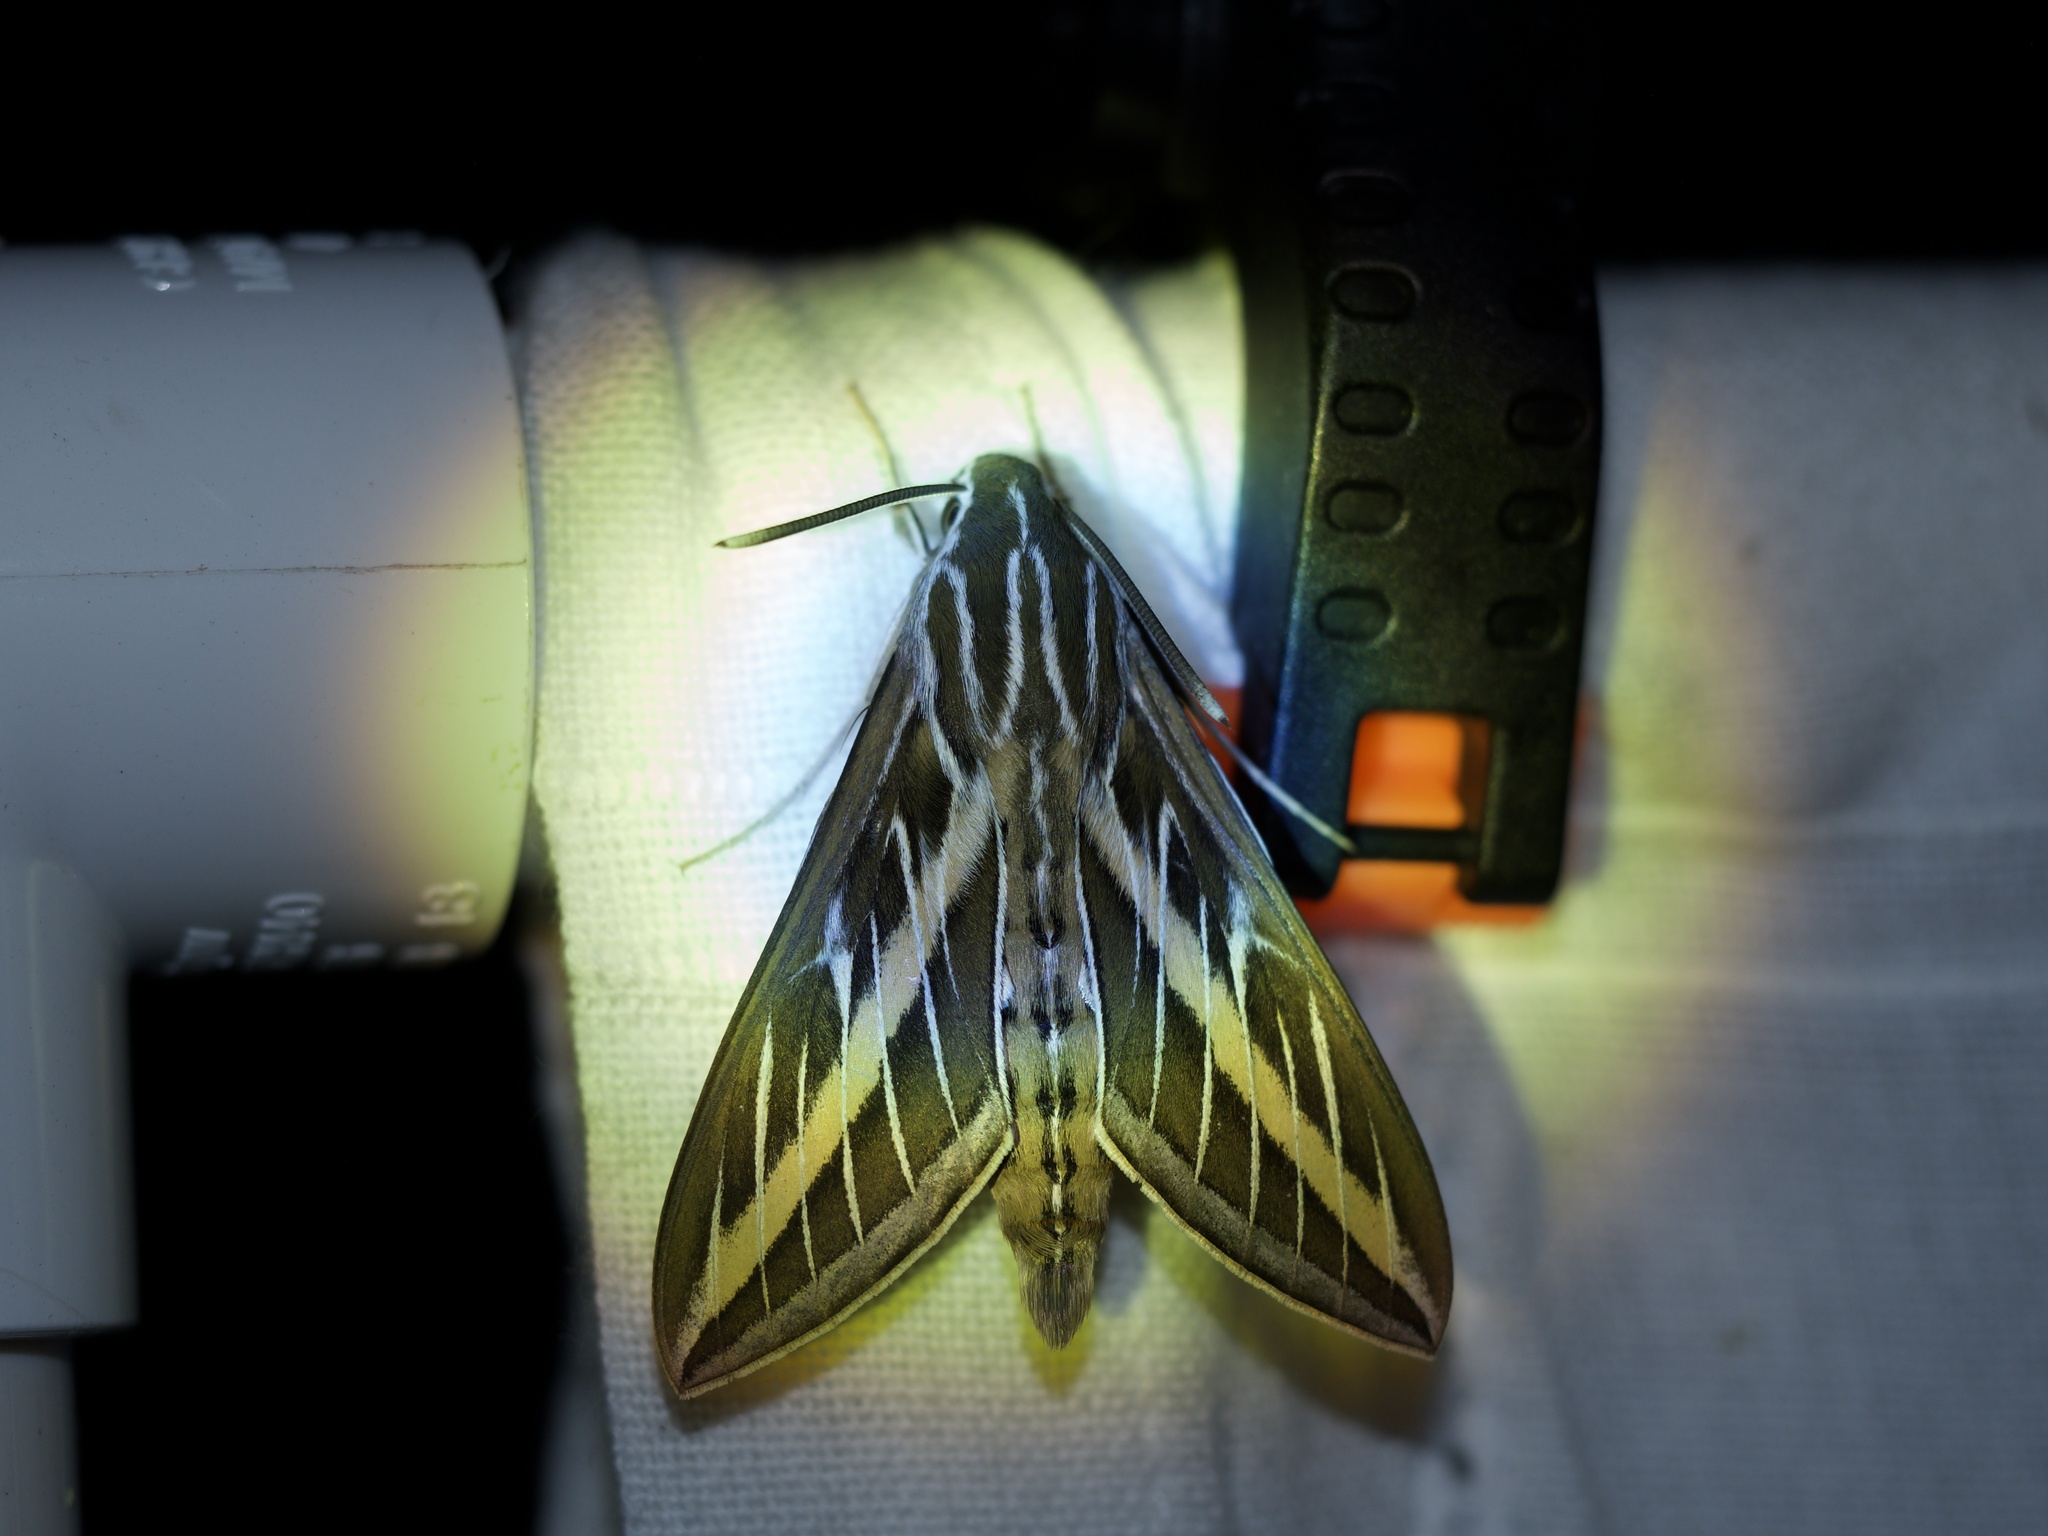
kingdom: Animalia
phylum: Arthropoda
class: Insecta
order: Lepidoptera
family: Sphingidae
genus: Hyles
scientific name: Hyles lineata
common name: White-lined sphinx
